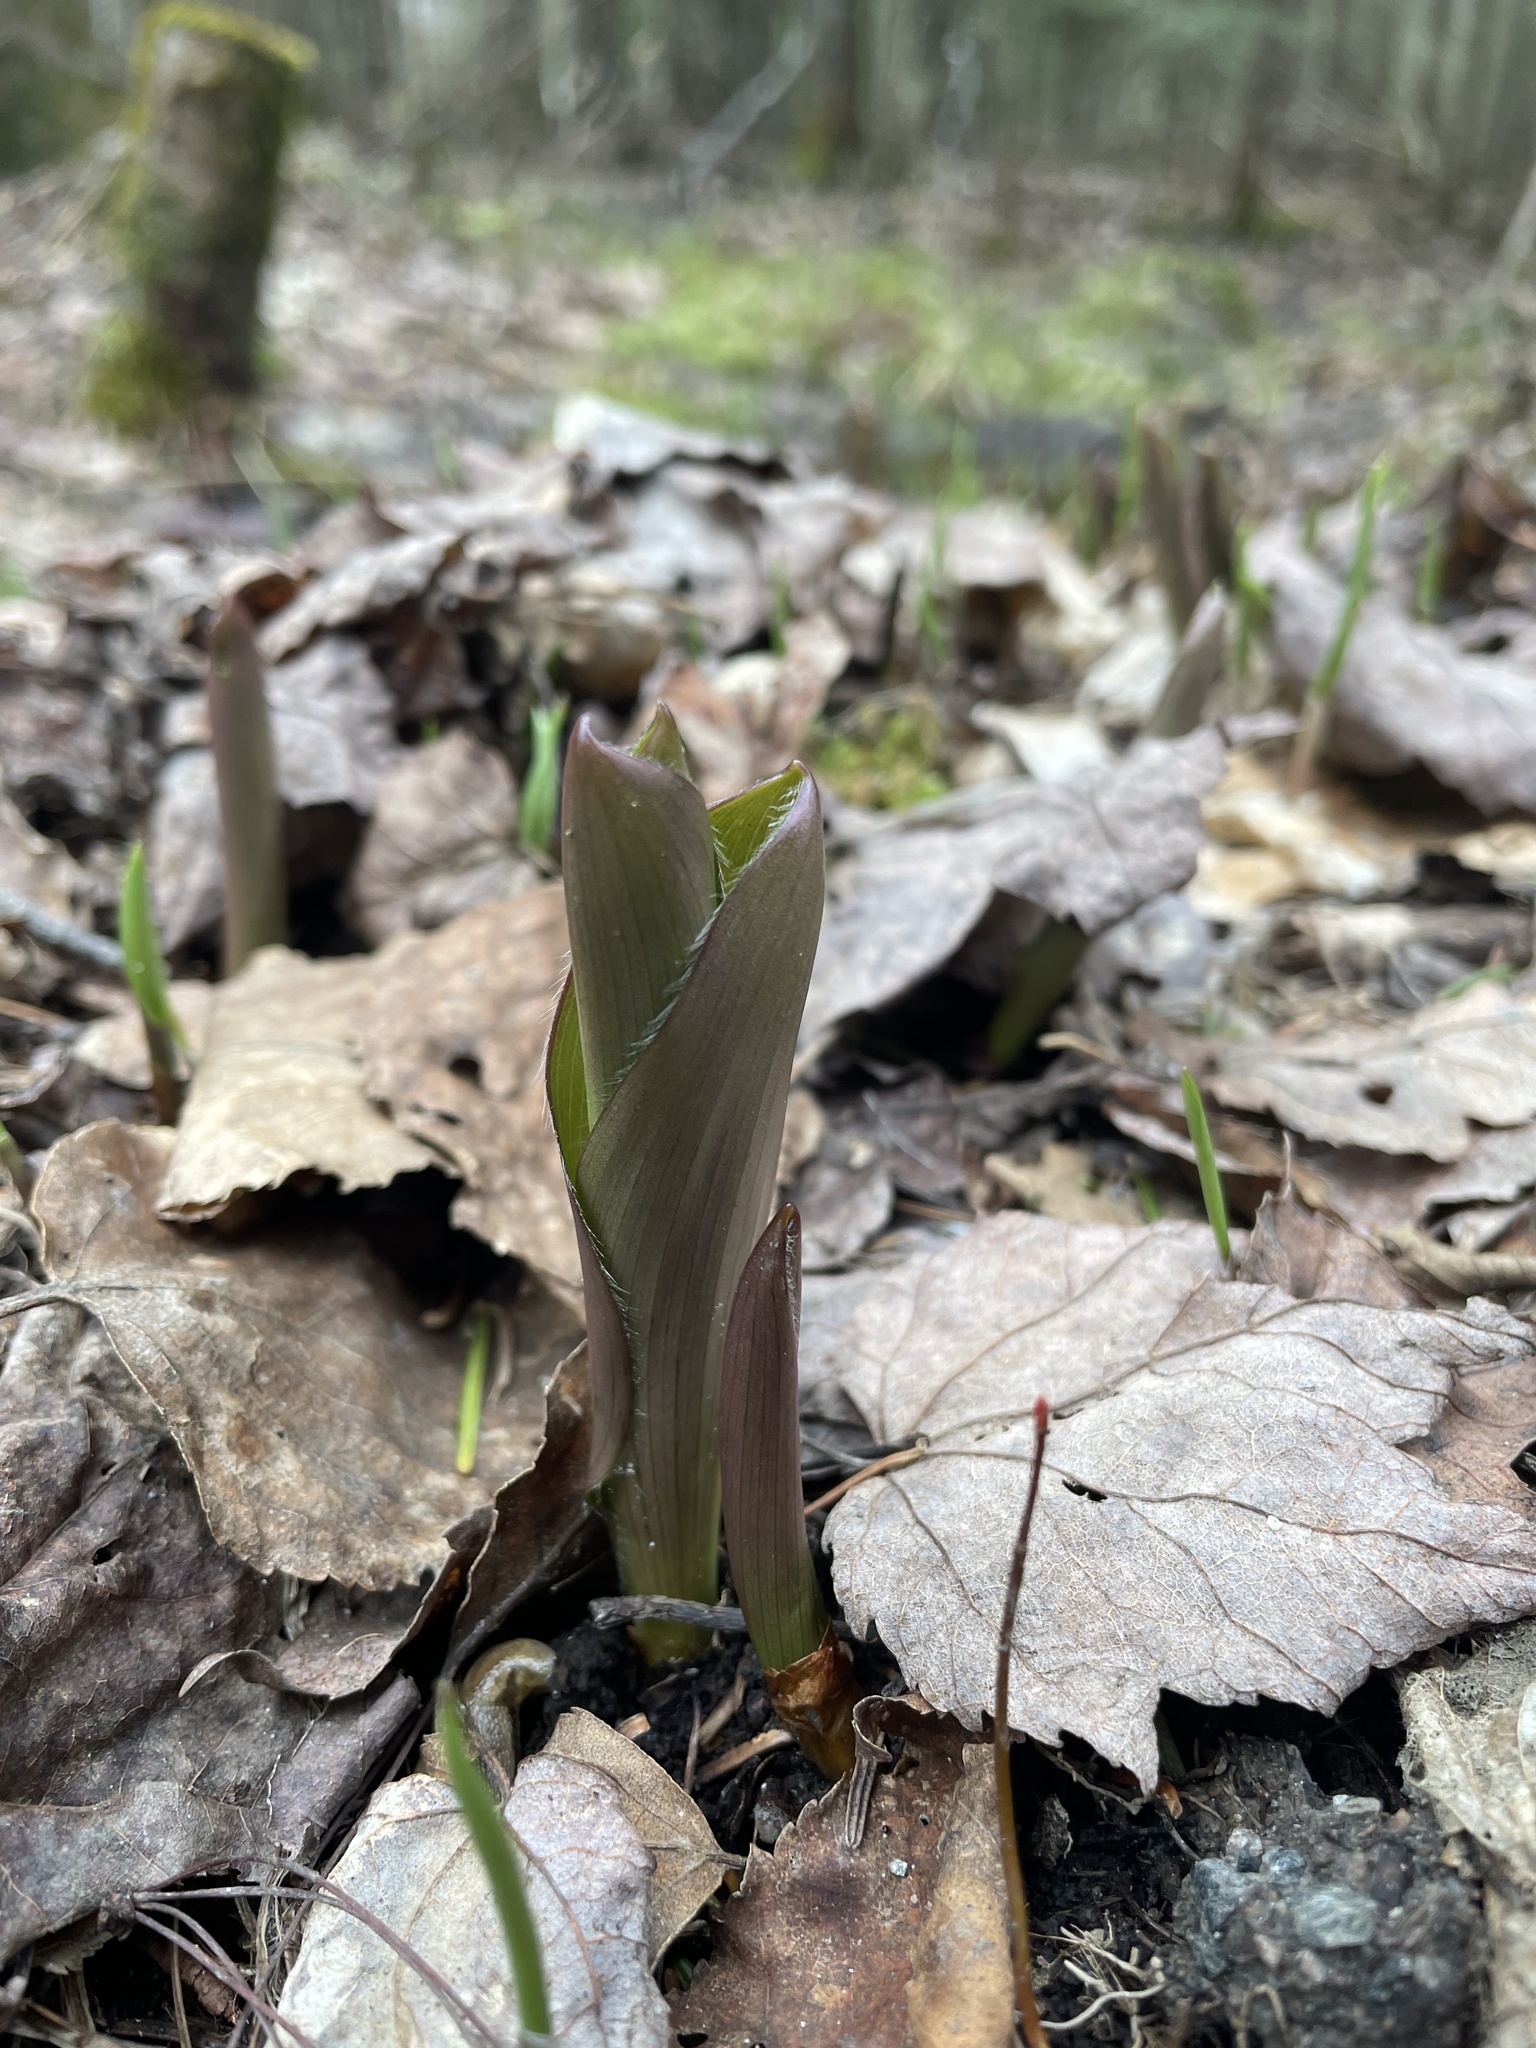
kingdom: Plantae
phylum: Tracheophyta
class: Liliopsida
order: Liliales
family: Liliaceae
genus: Clintonia
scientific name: Clintonia borealis
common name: Yellow clintonia
